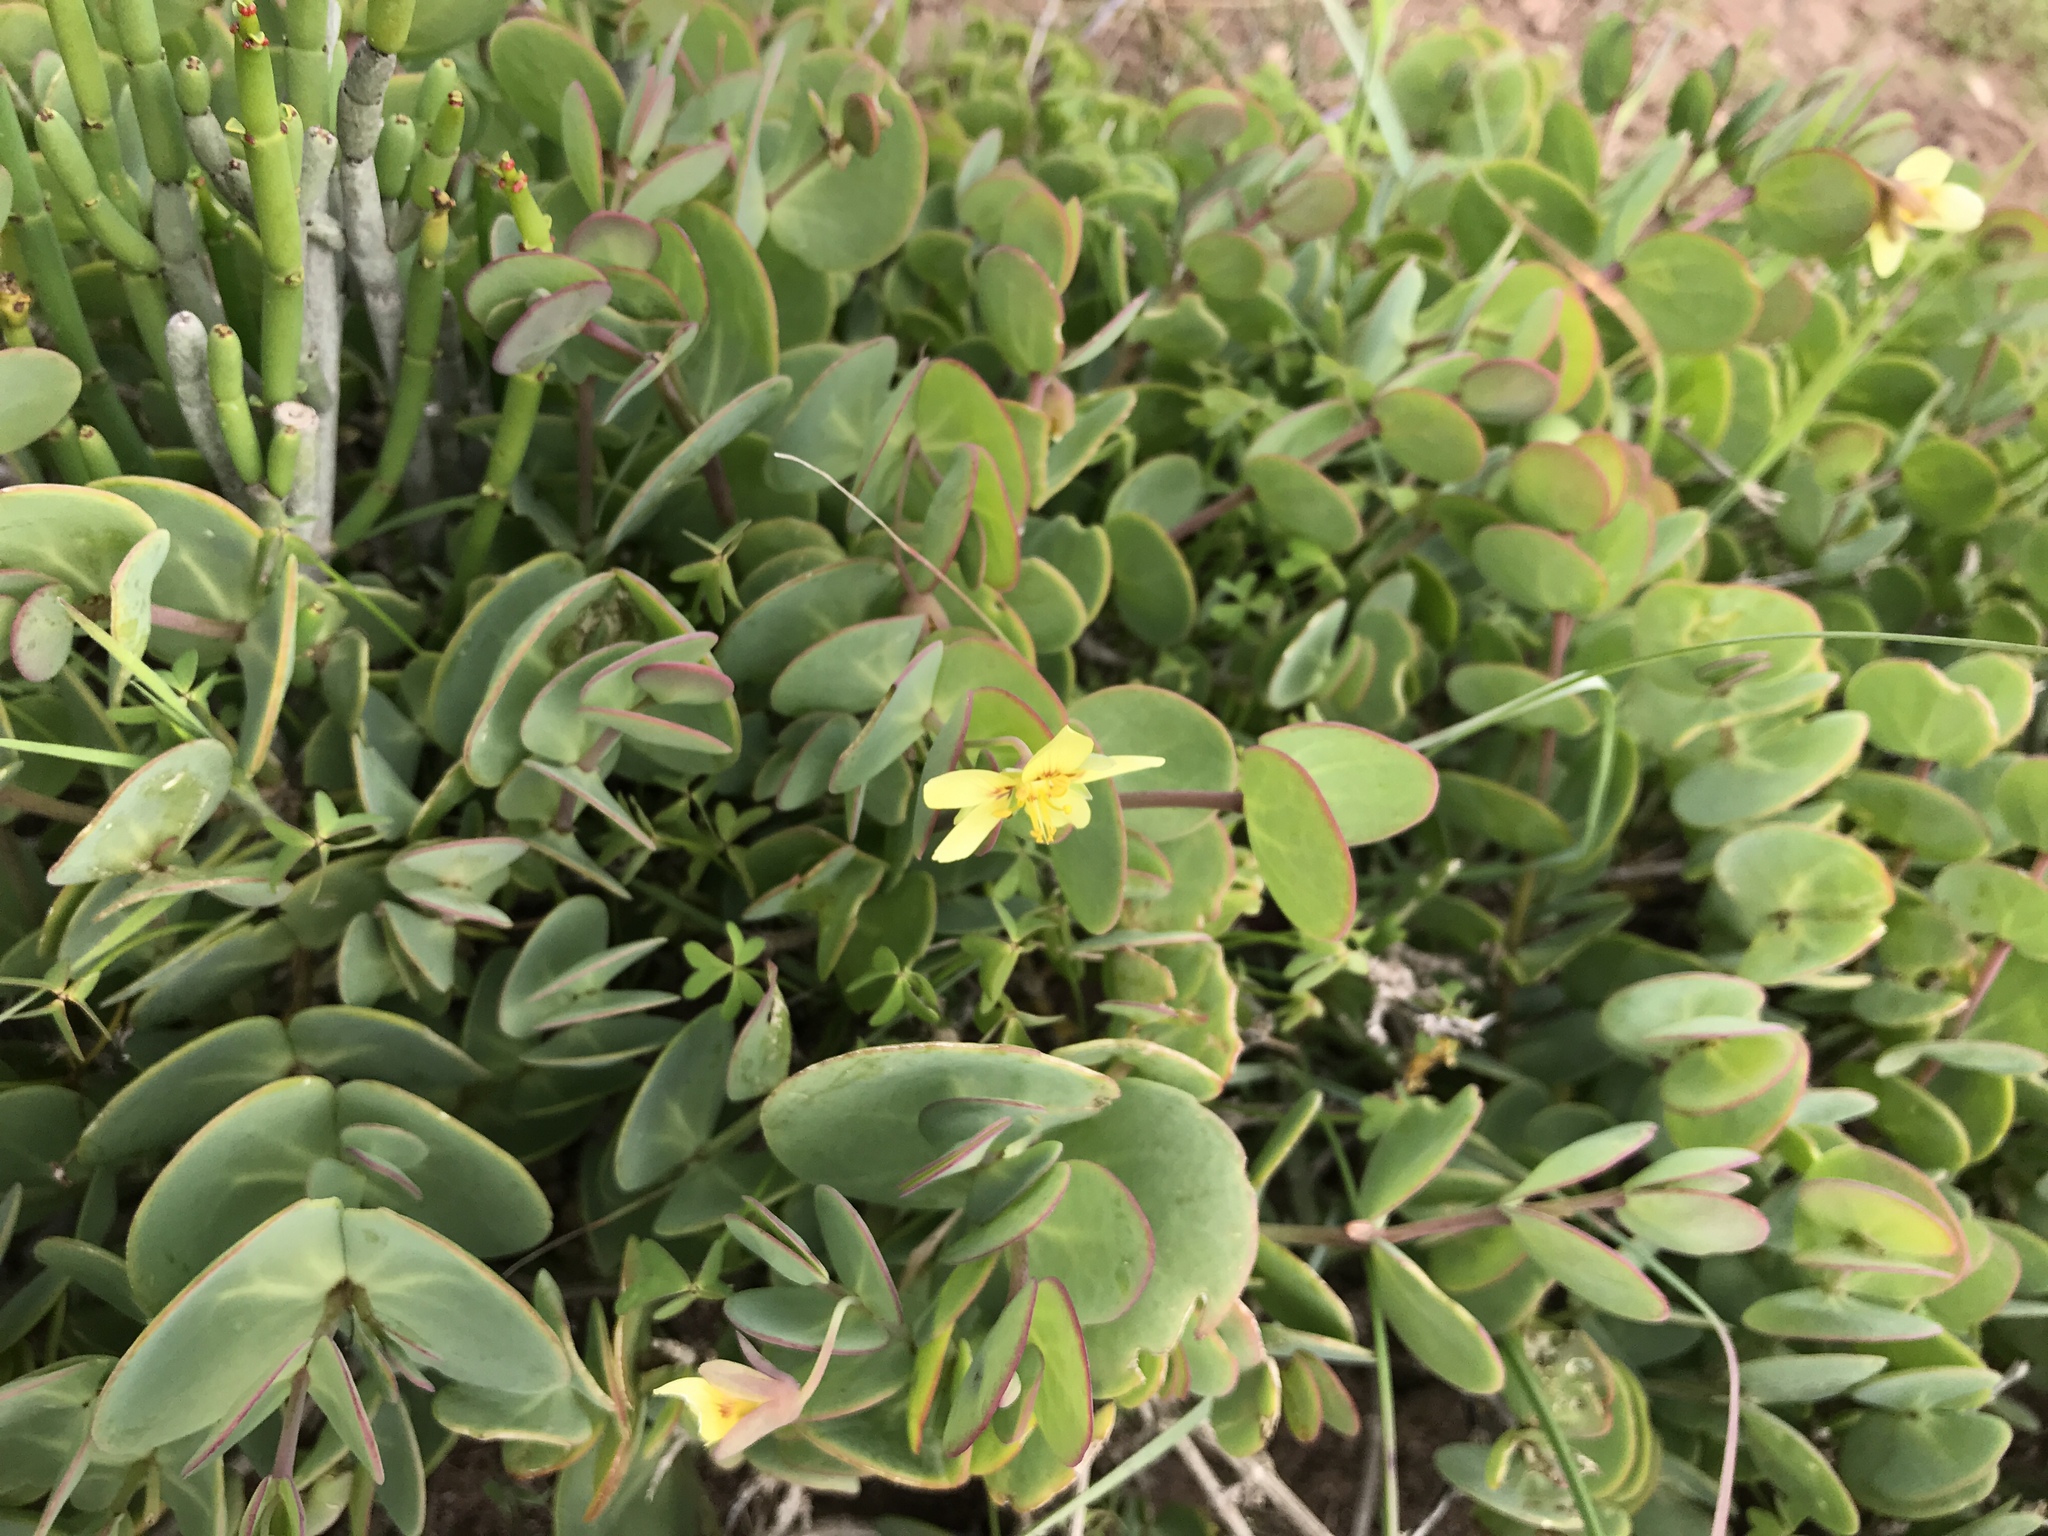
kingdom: Plantae
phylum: Tracheophyta
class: Magnoliopsida
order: Zygophyllales
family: Zygophyllaceae
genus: Roepera
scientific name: Roepera cordifolia
